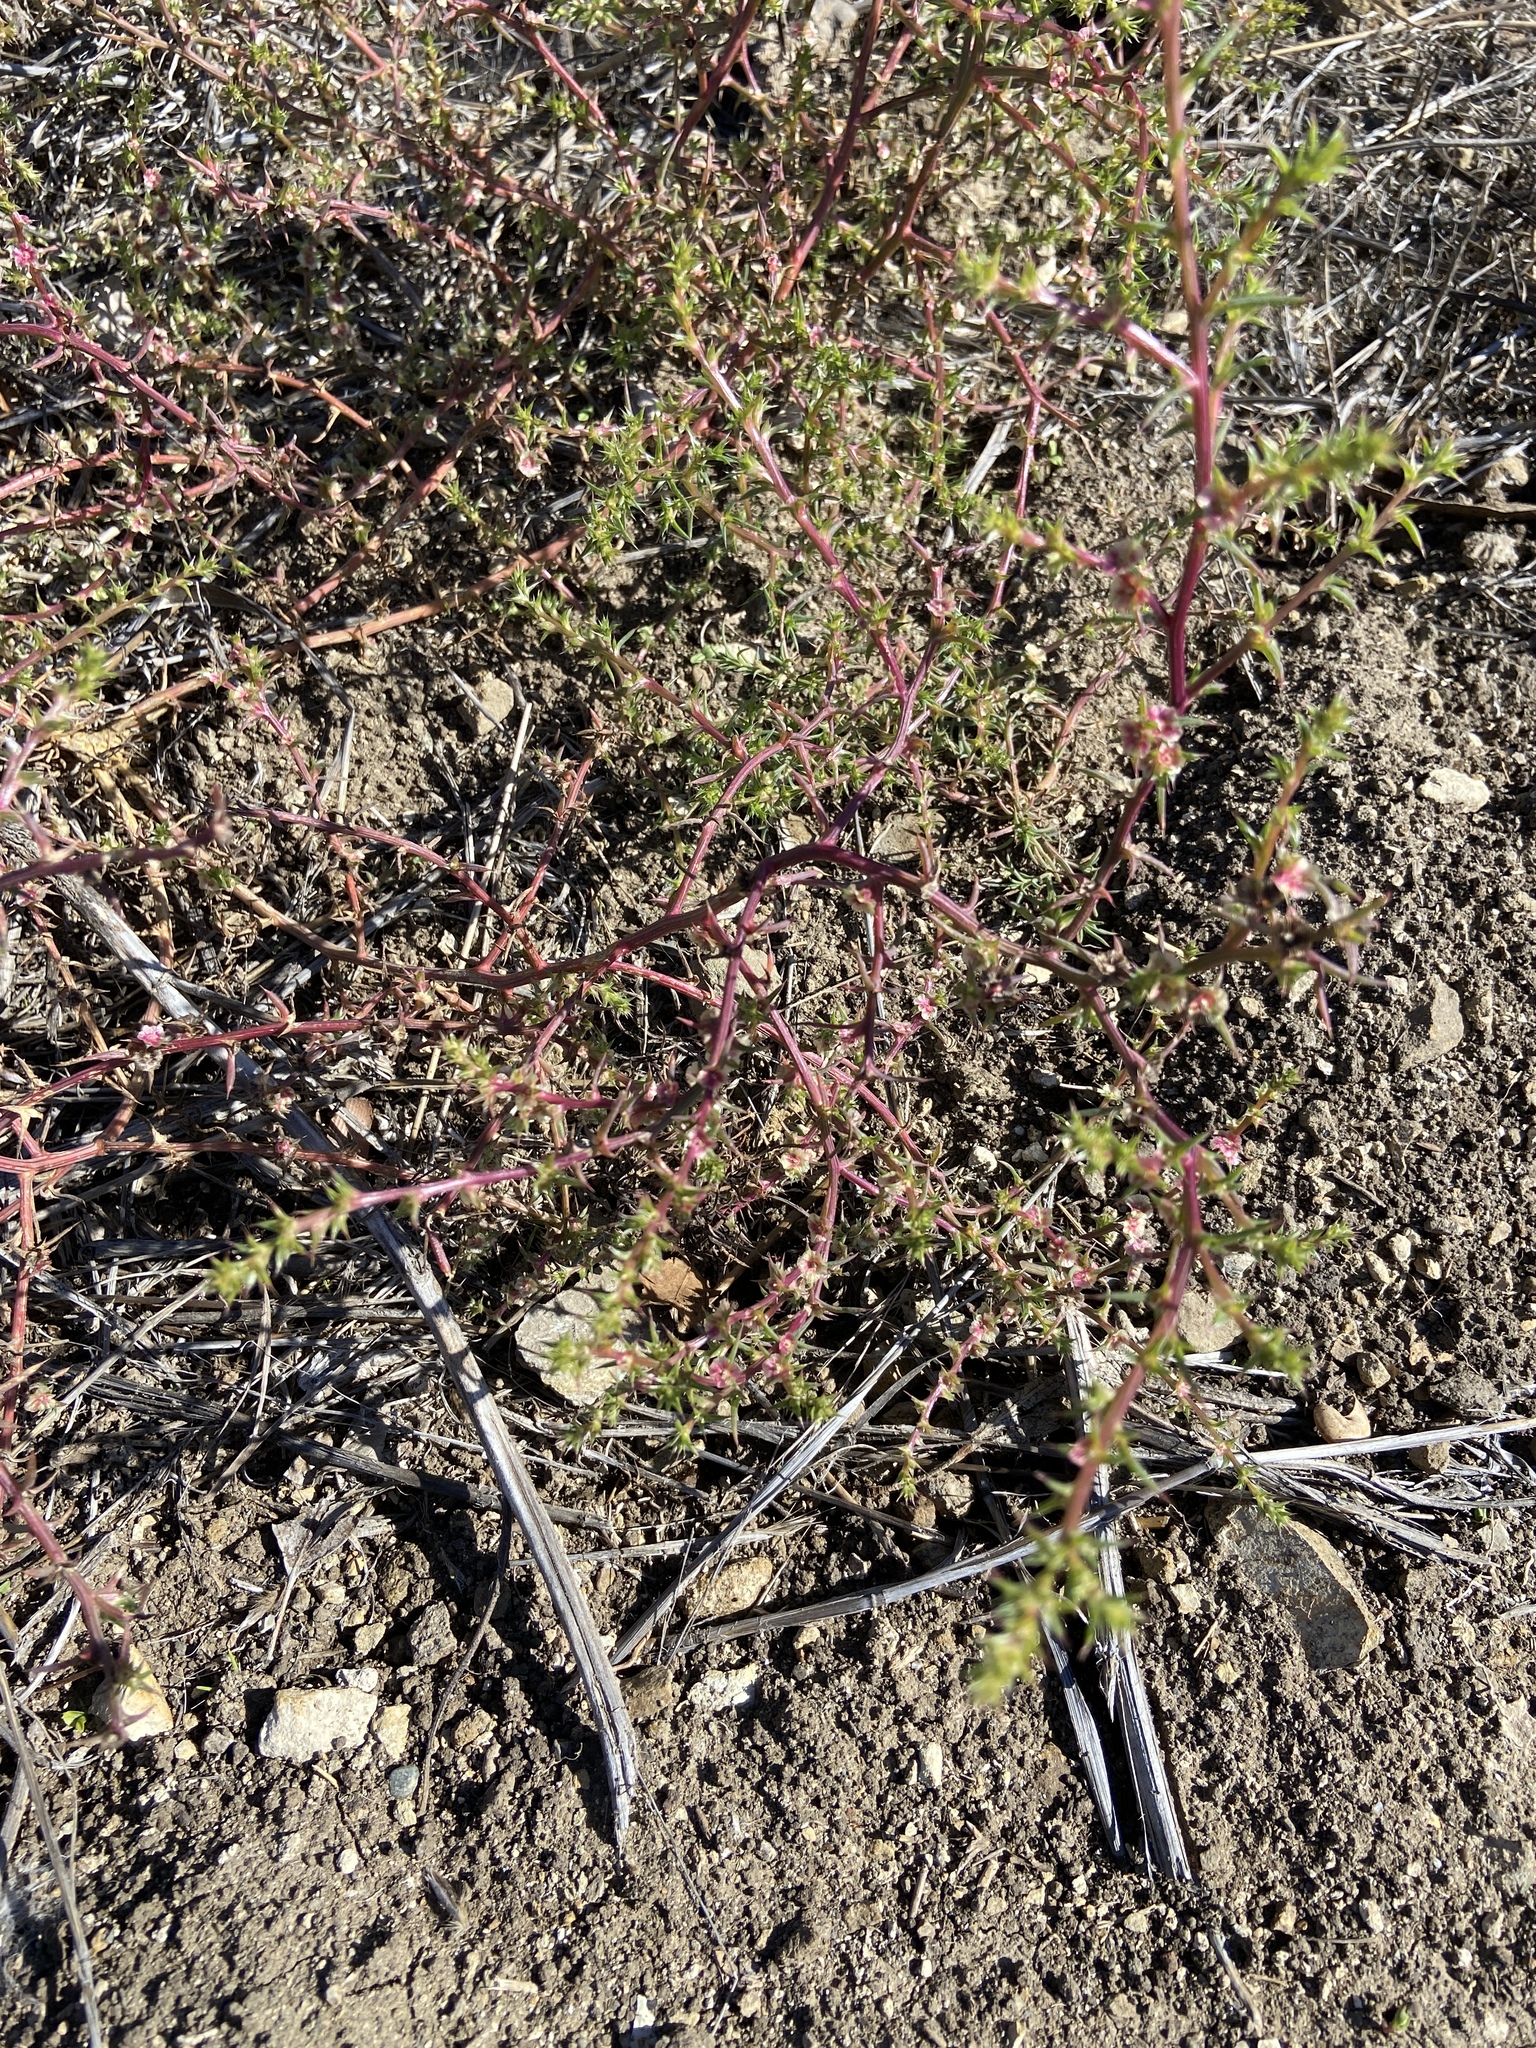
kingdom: Plantae
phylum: Tracheophyta
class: Magnoliopsida
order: Caryophyllales
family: Amaranthaceae
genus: Salsola
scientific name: Salsola australis
